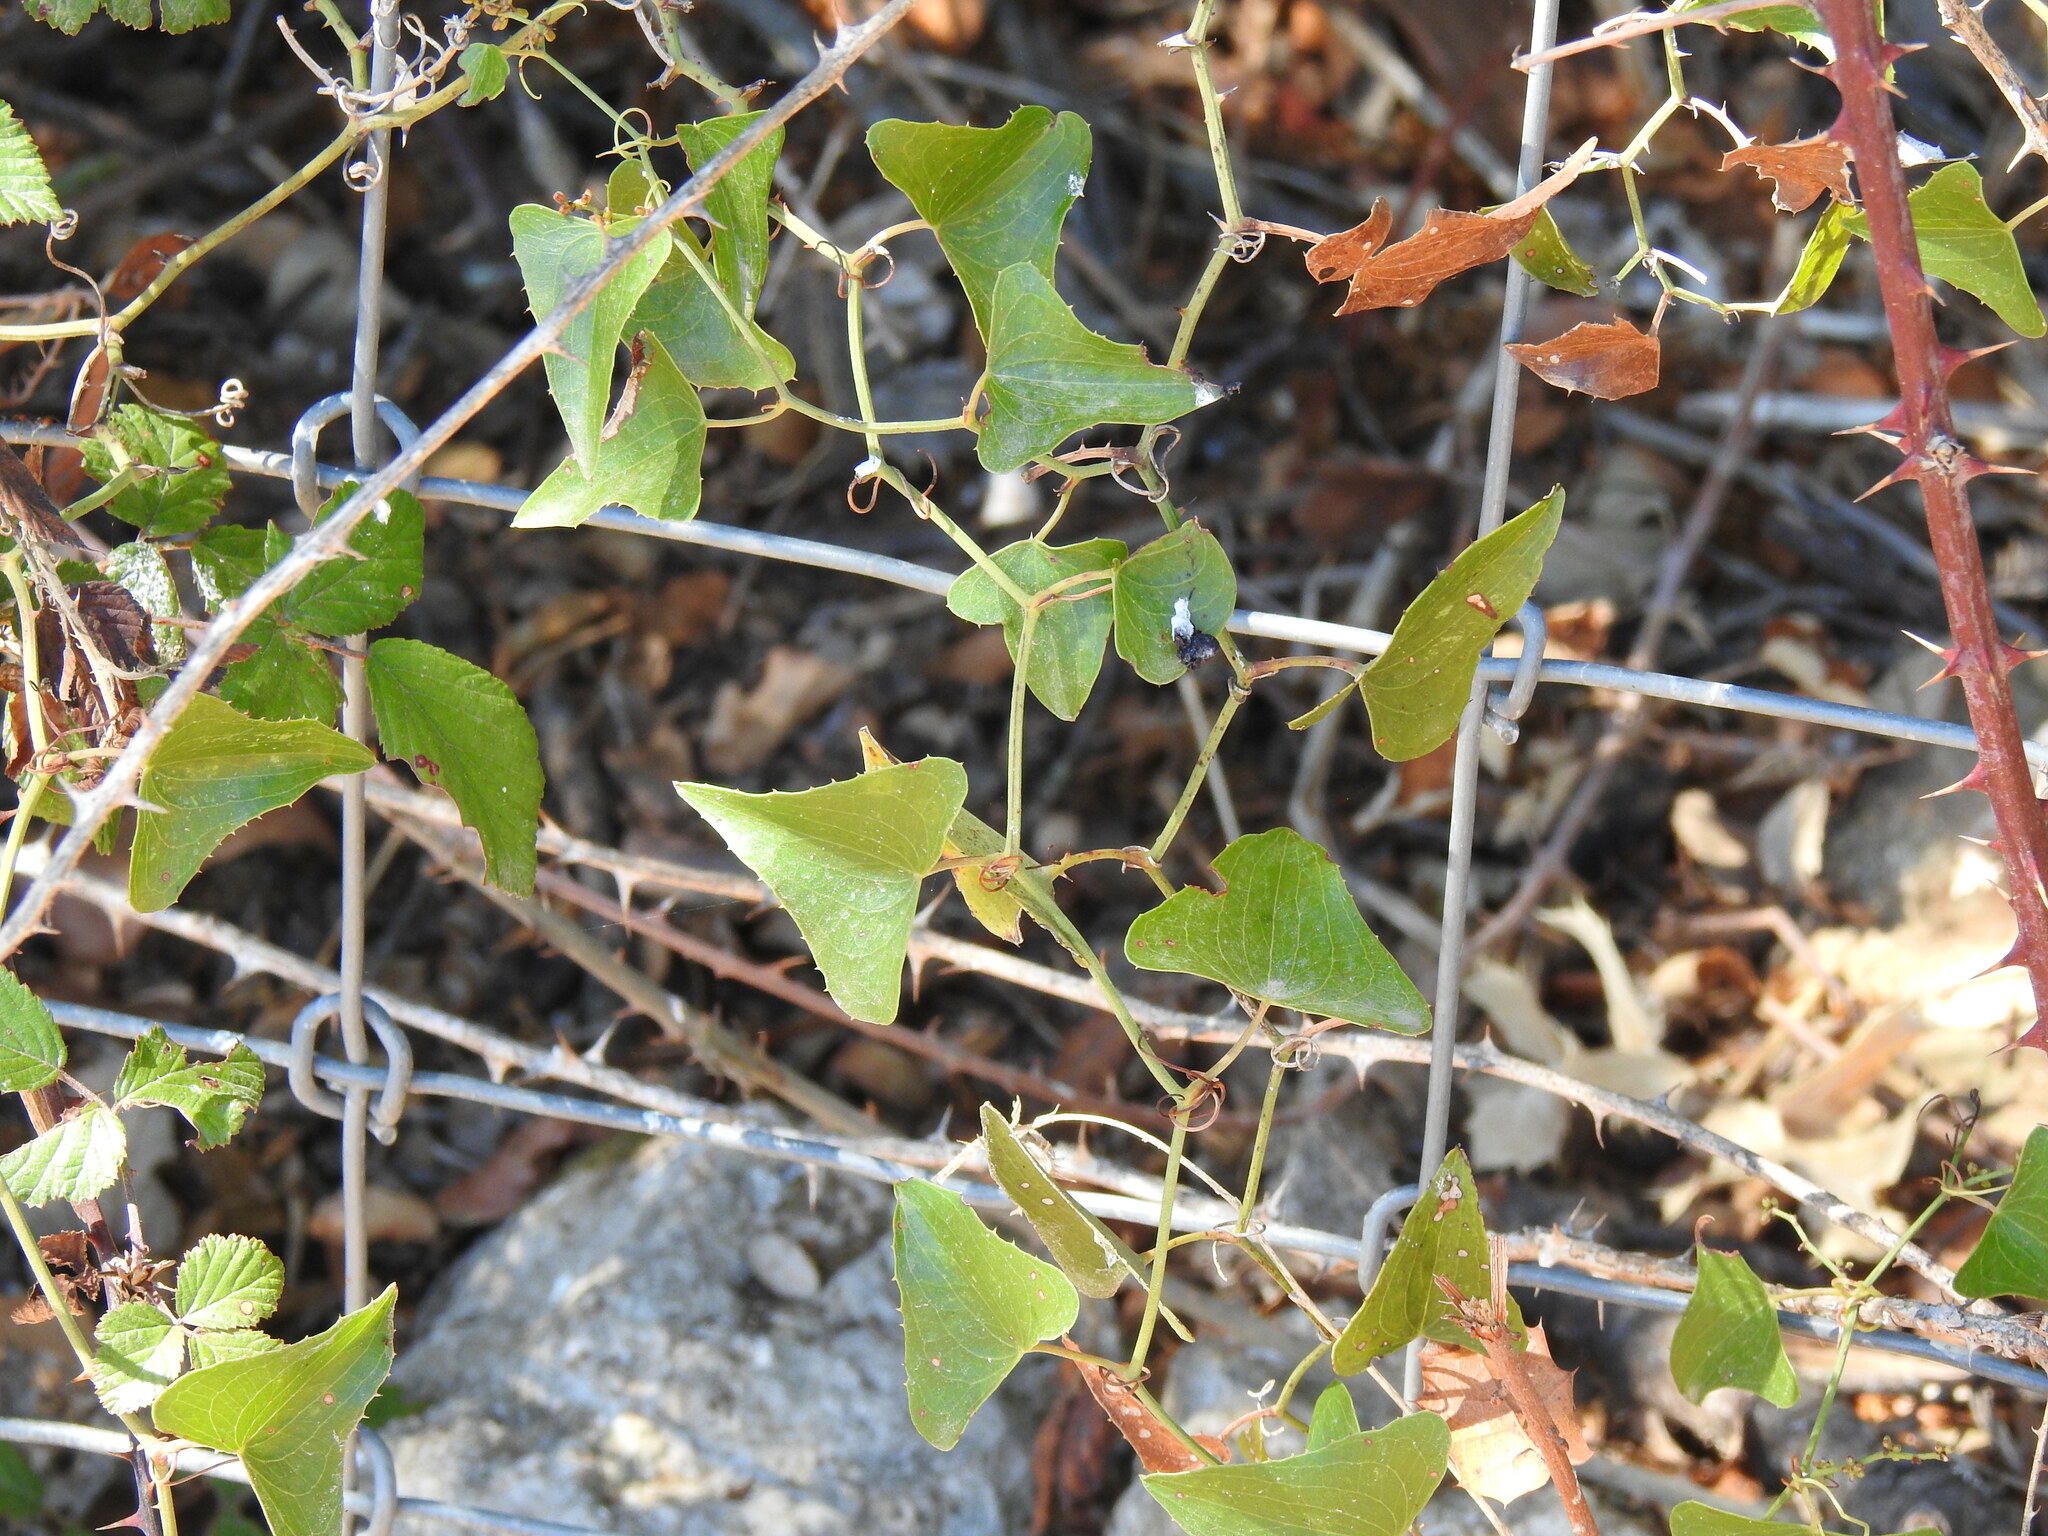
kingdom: Plantae
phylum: Tracheophyta
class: Liliopsida
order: Liliales
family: Smilacaceae
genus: Smilax
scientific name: Smilax aspera
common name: Common smilax
